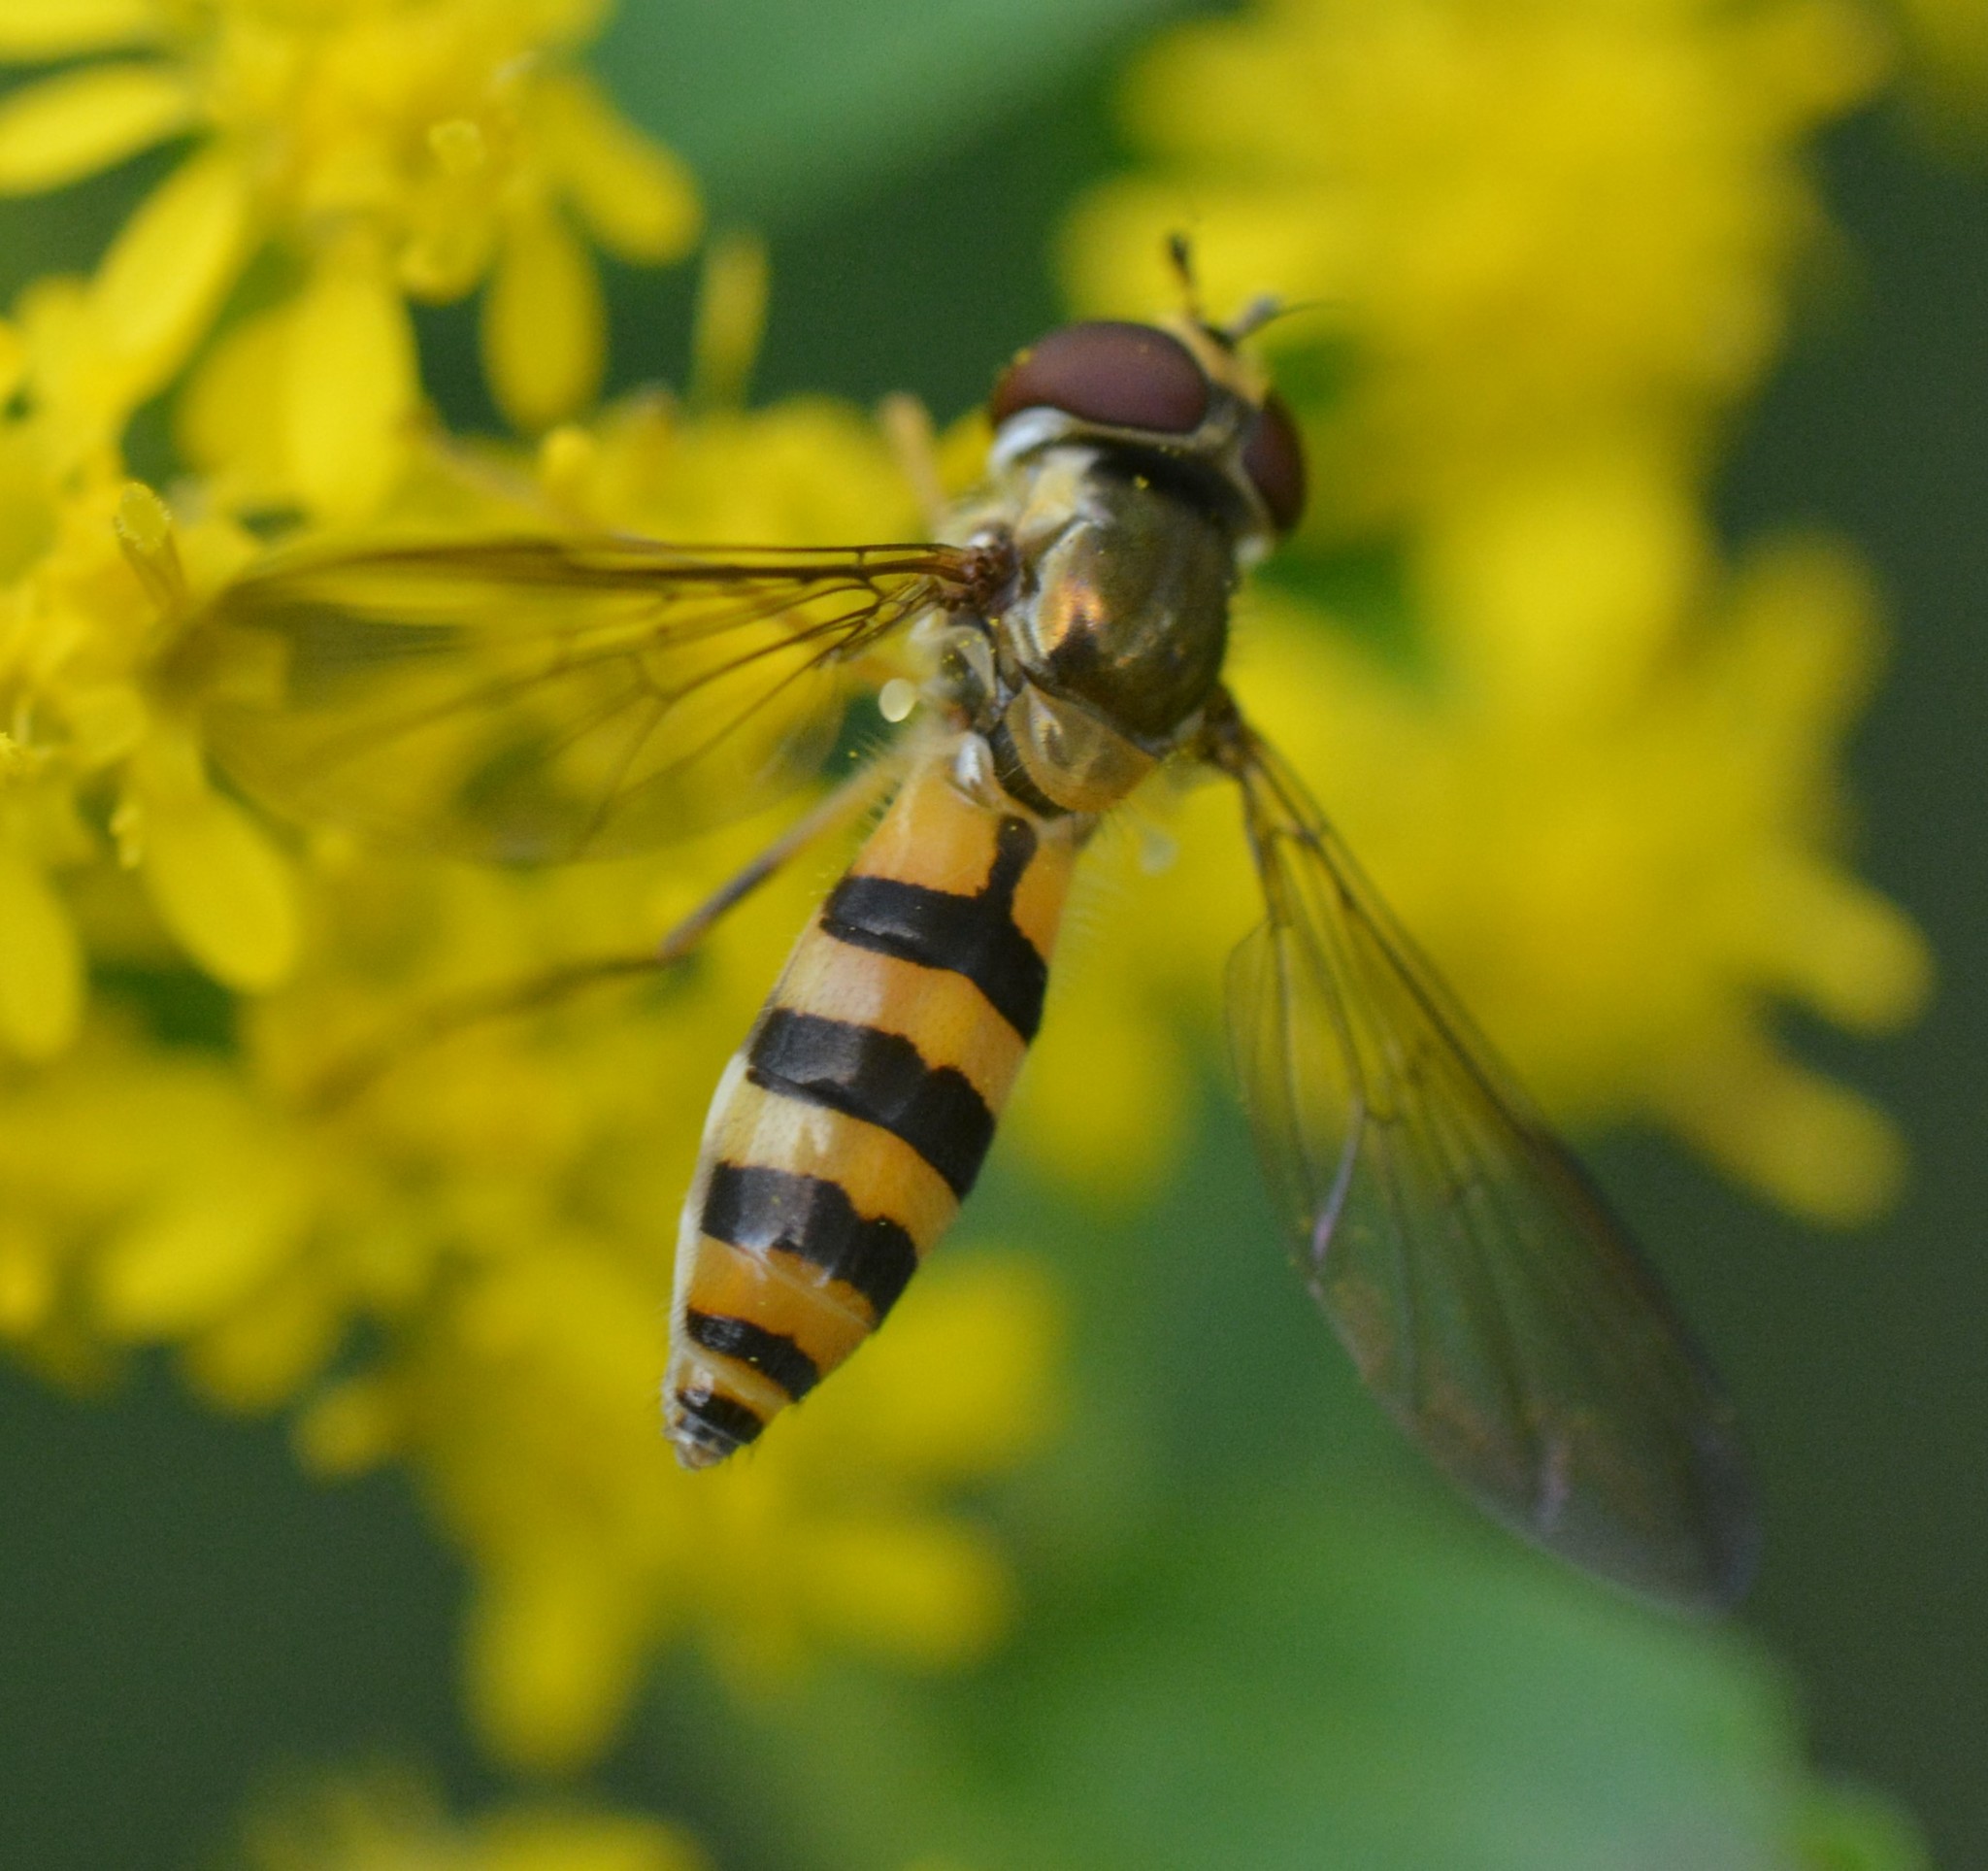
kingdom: Animalia
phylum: Arthropoda
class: Insecta
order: Diptera
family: Syrphidae
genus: Meliscaeva
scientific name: Meliscaeva cinctella
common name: American thintail fly
